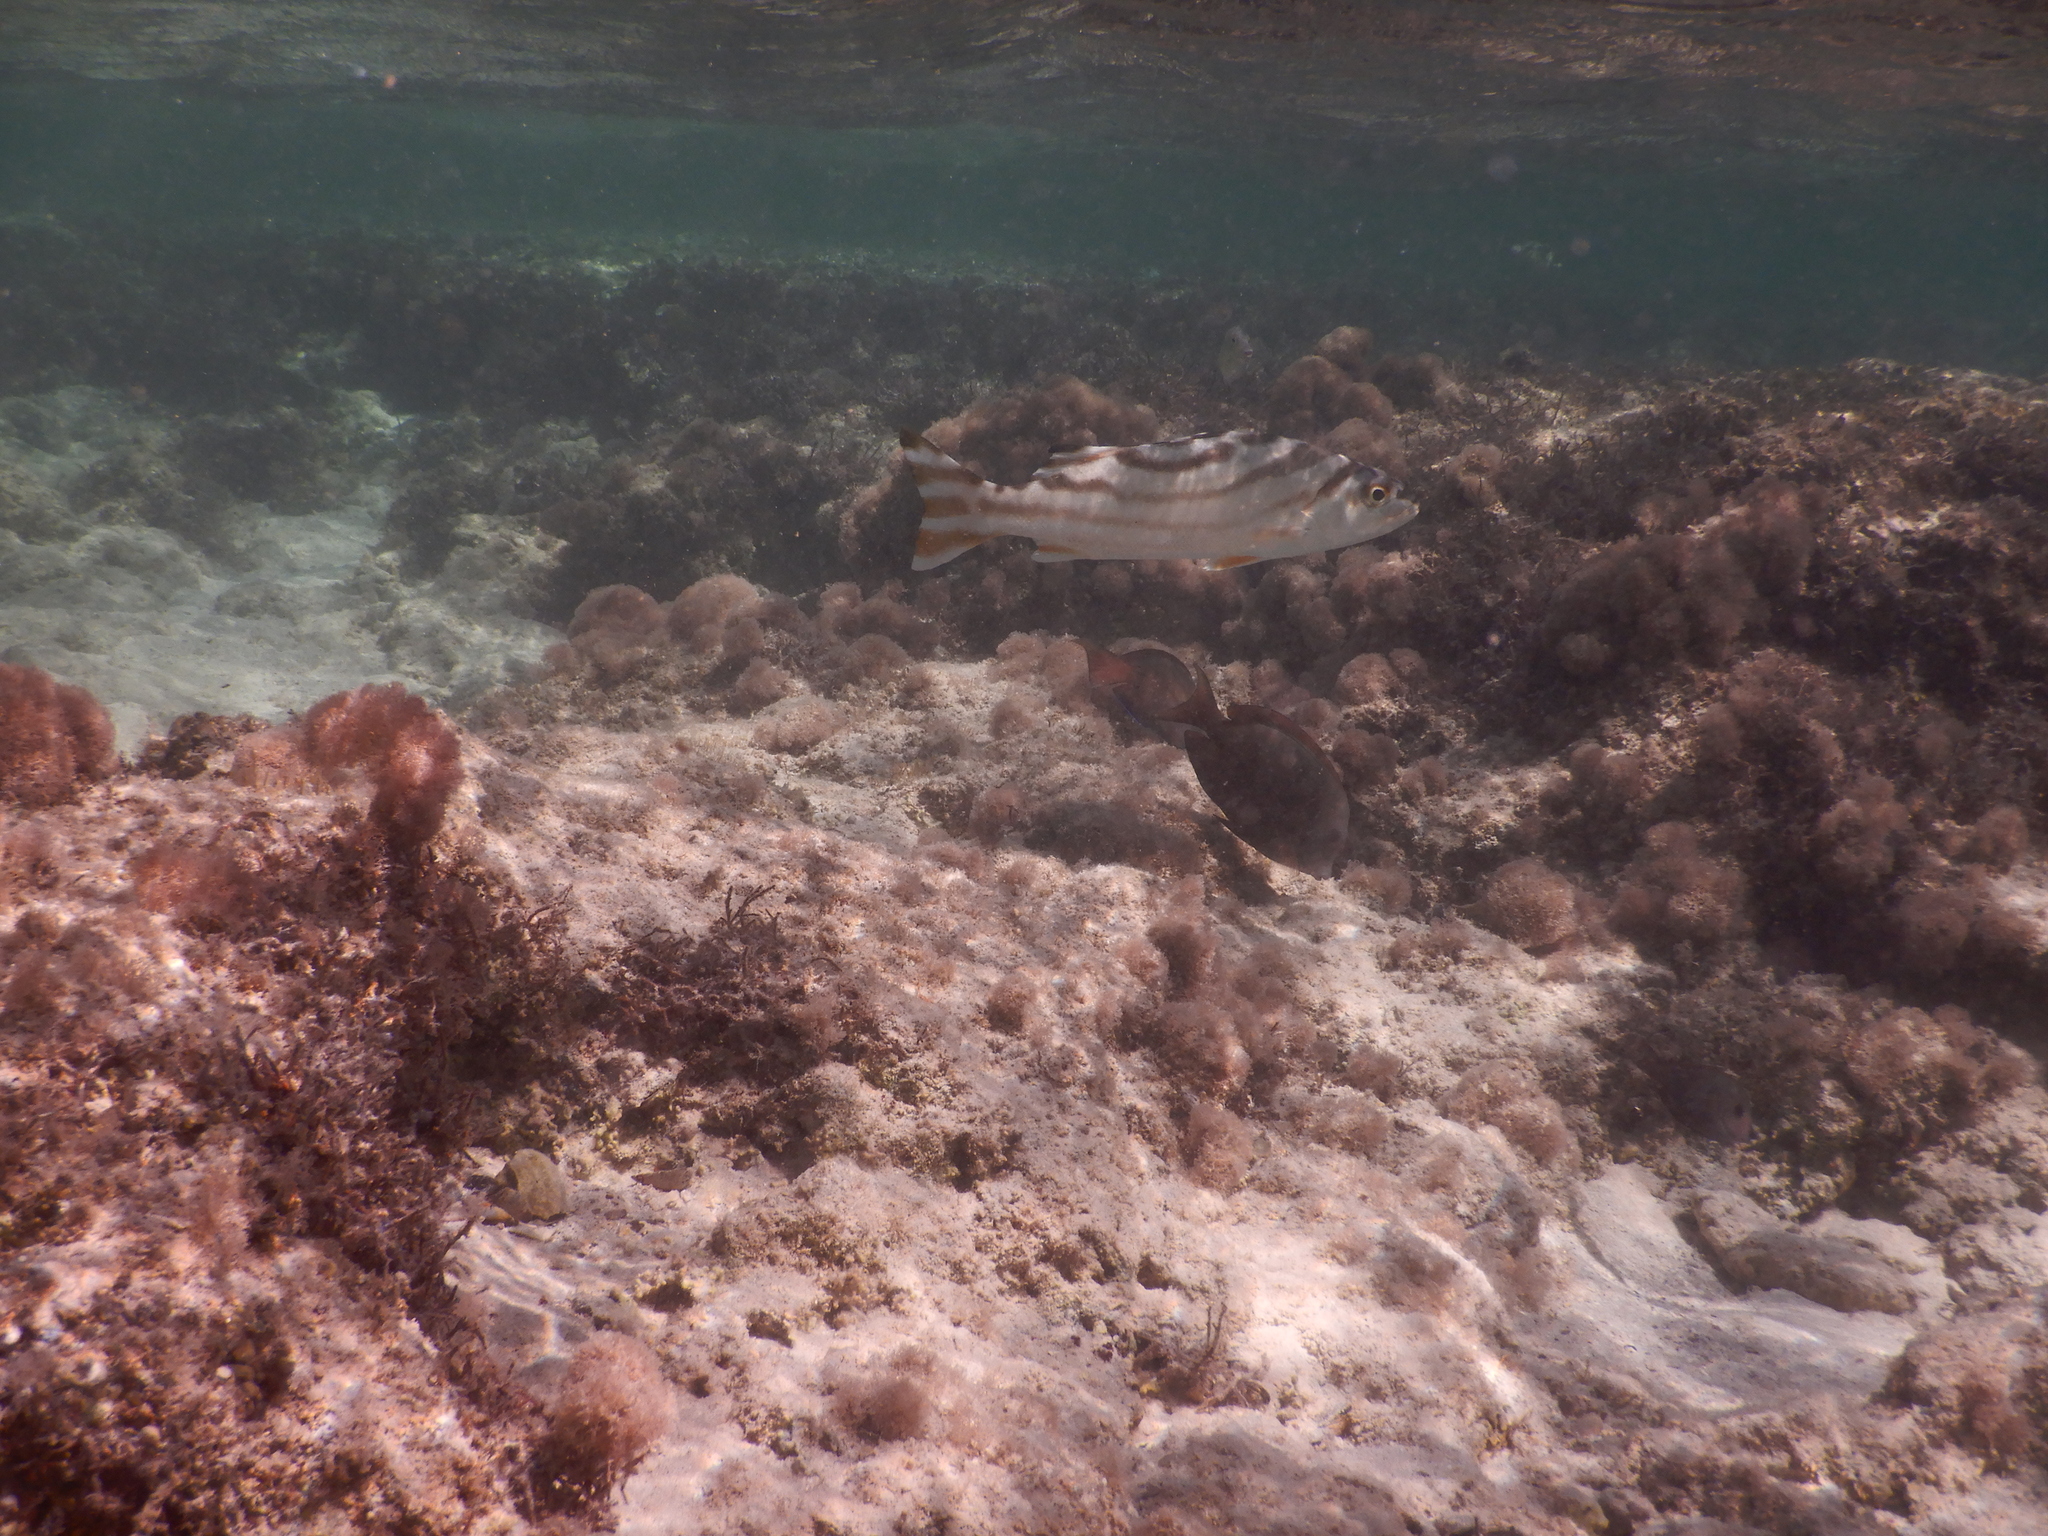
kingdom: Animalia
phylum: Chordata
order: Perciformes
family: Terapontidae
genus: Terapon
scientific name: Terapon jarbua
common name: Jarbua terapon
